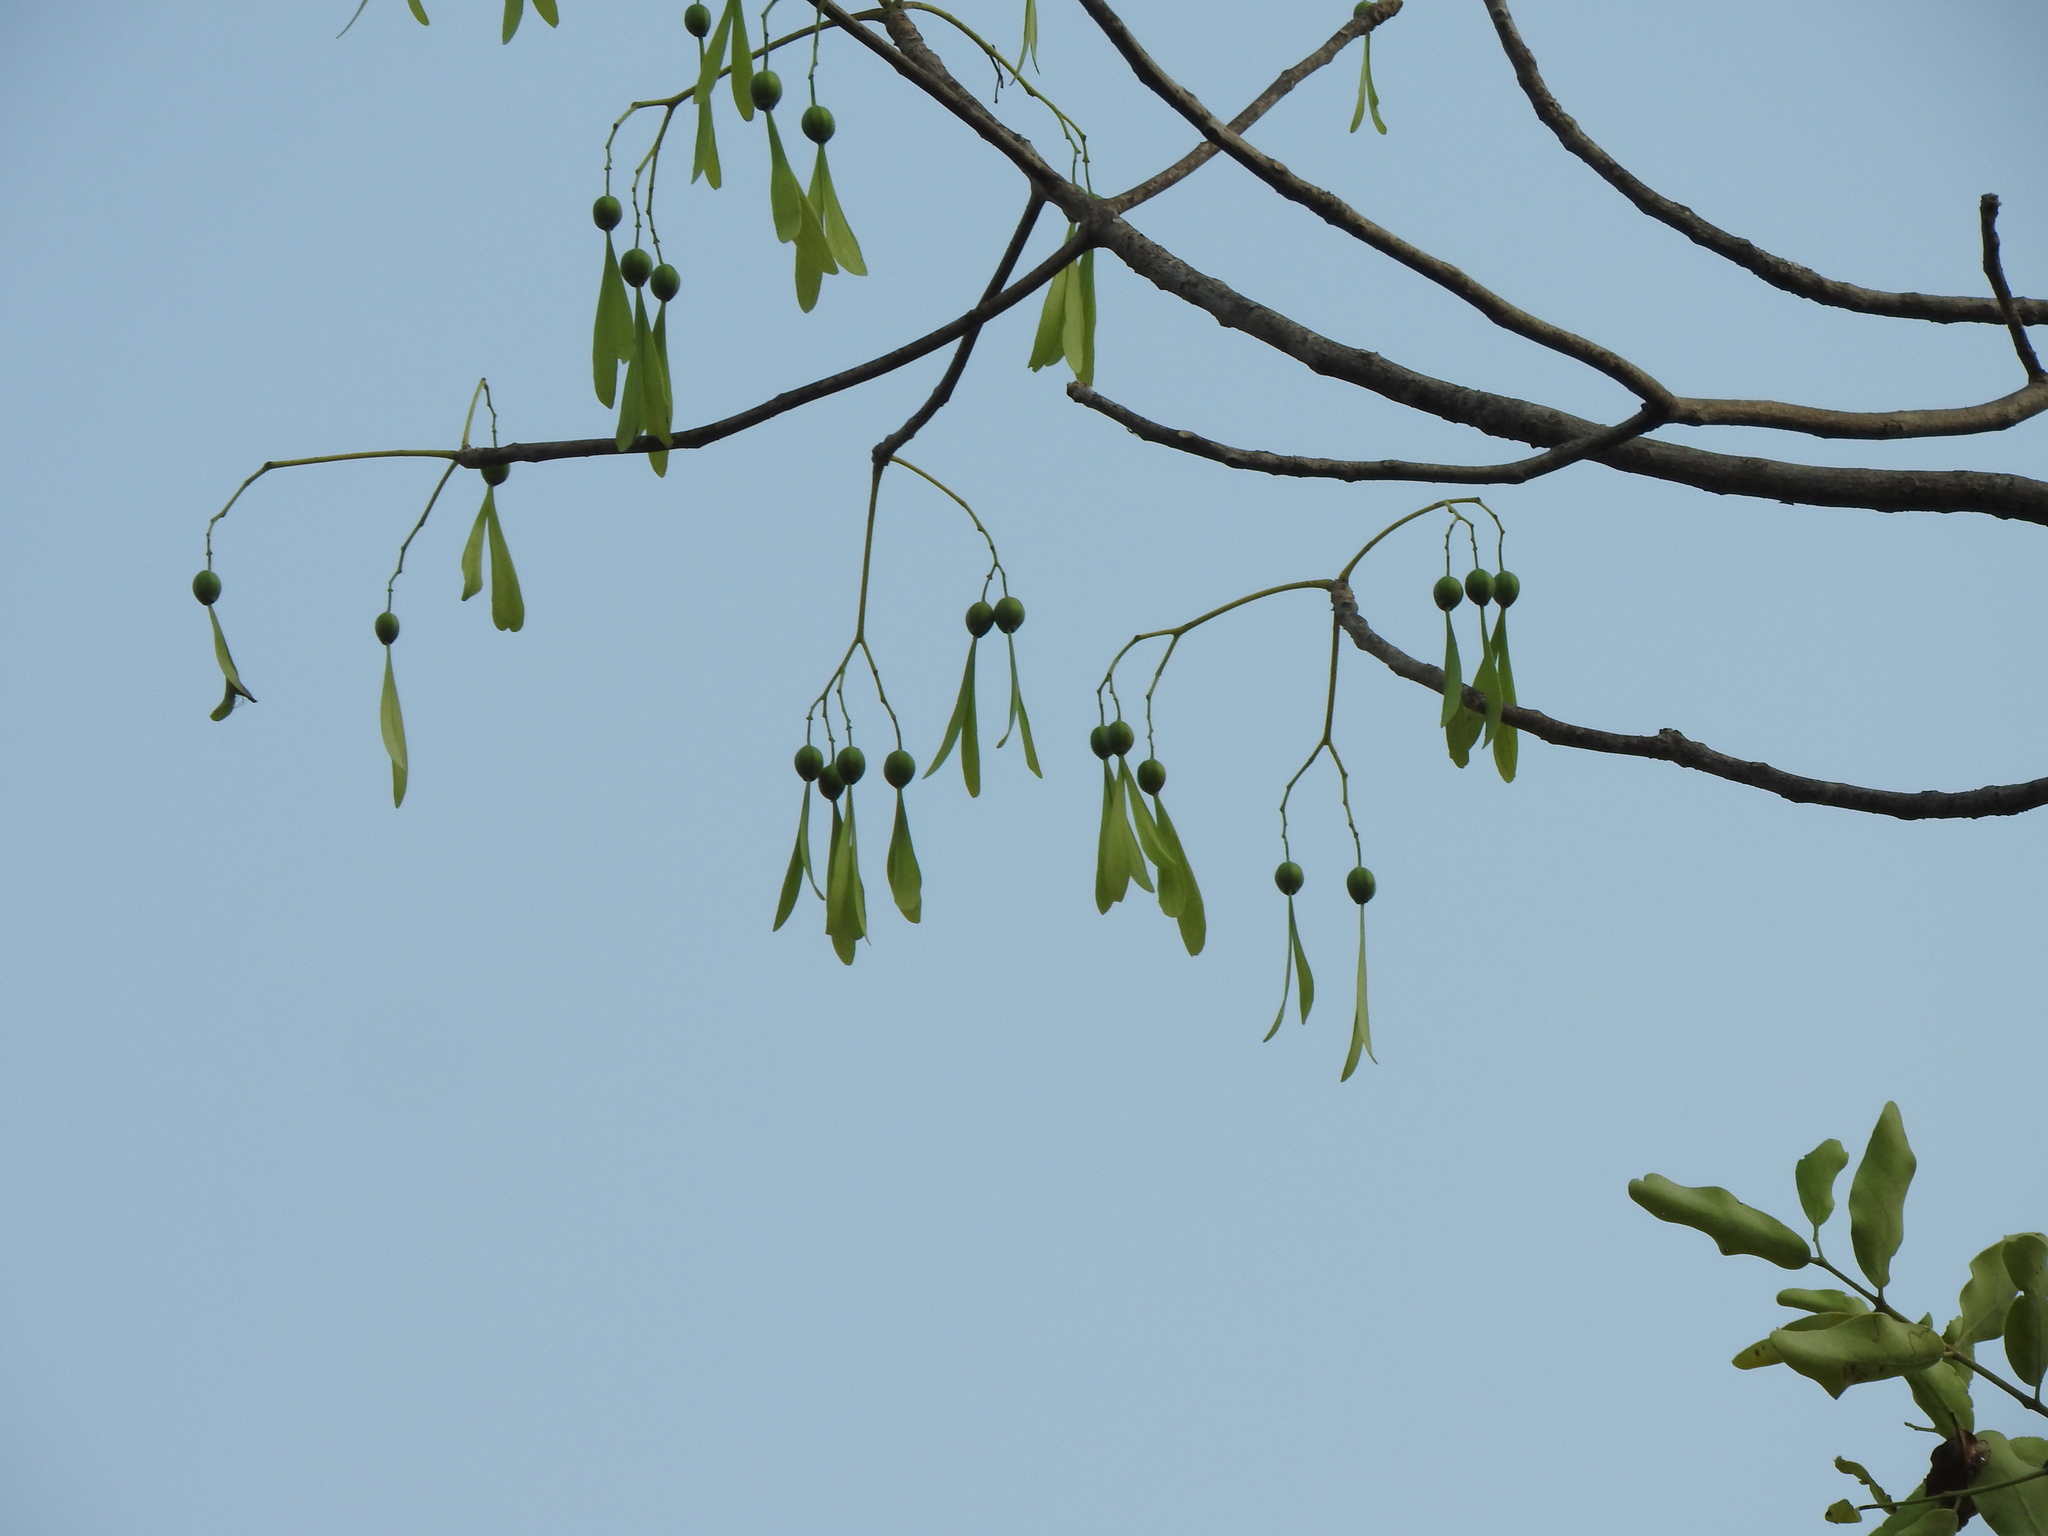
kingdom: Plantae
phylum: Tracheophyta
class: Magnoliopsida
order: Laurales
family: Hernandiaceae
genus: Gyrocarpus
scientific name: Gyrocarpus americanus
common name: Gyro damson
